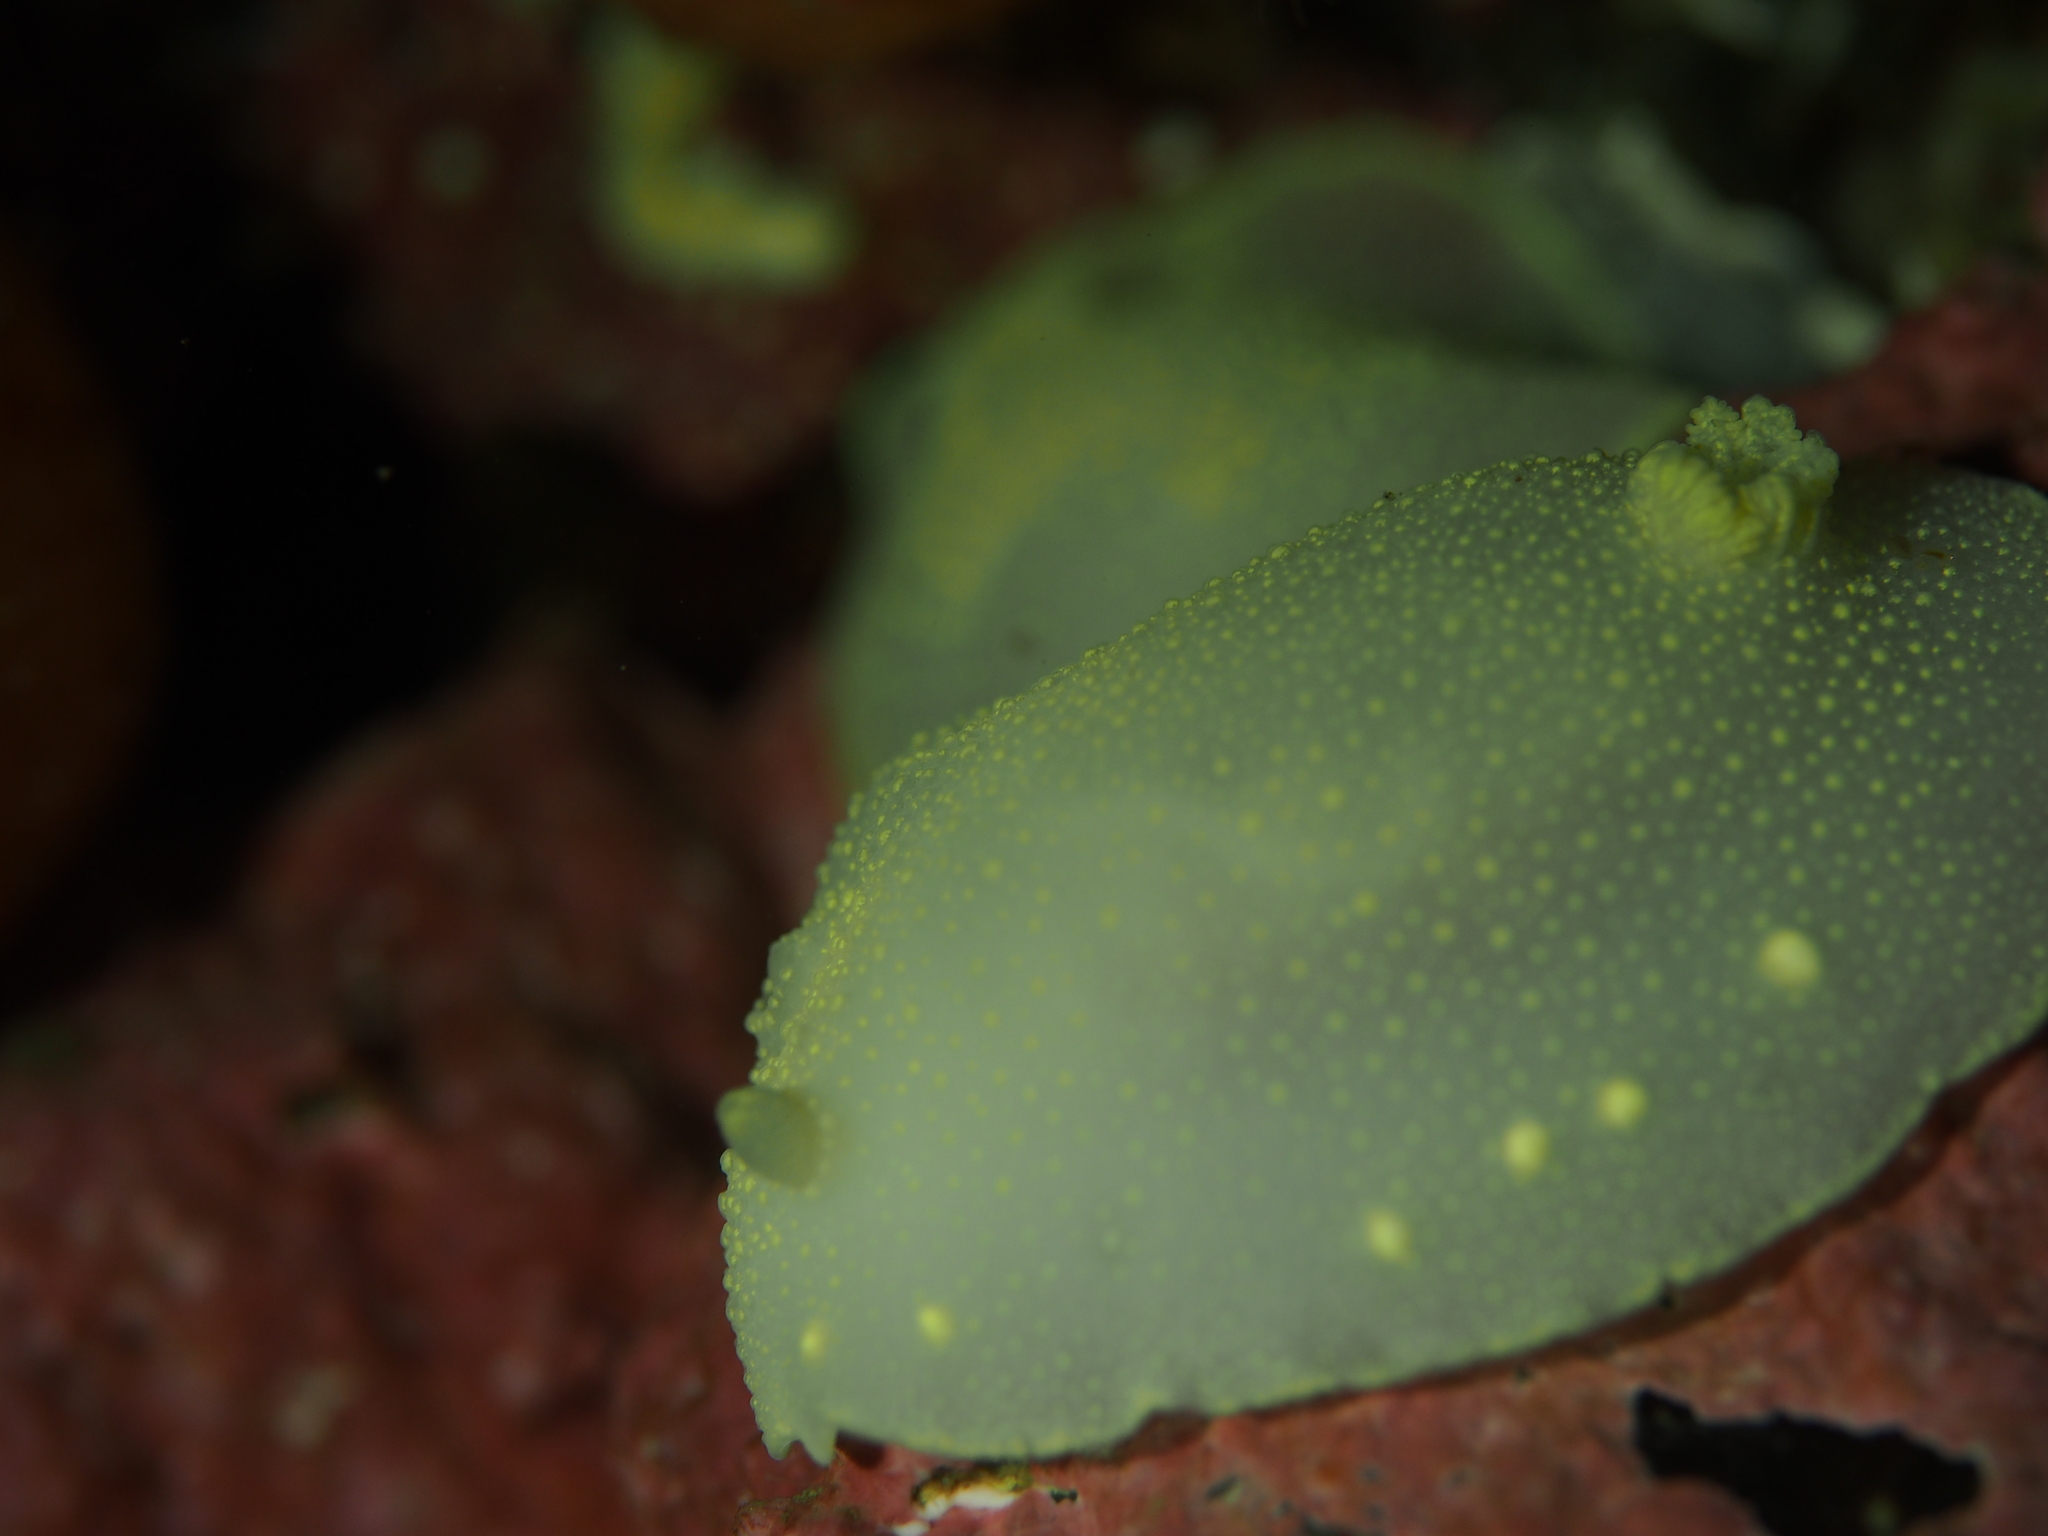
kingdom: Animalia
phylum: Mollusca
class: Gastropoda
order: Nudibranchia
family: Cadlinidae
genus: Cadlina
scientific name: Cadlina laevis
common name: White atlantic cadlina
